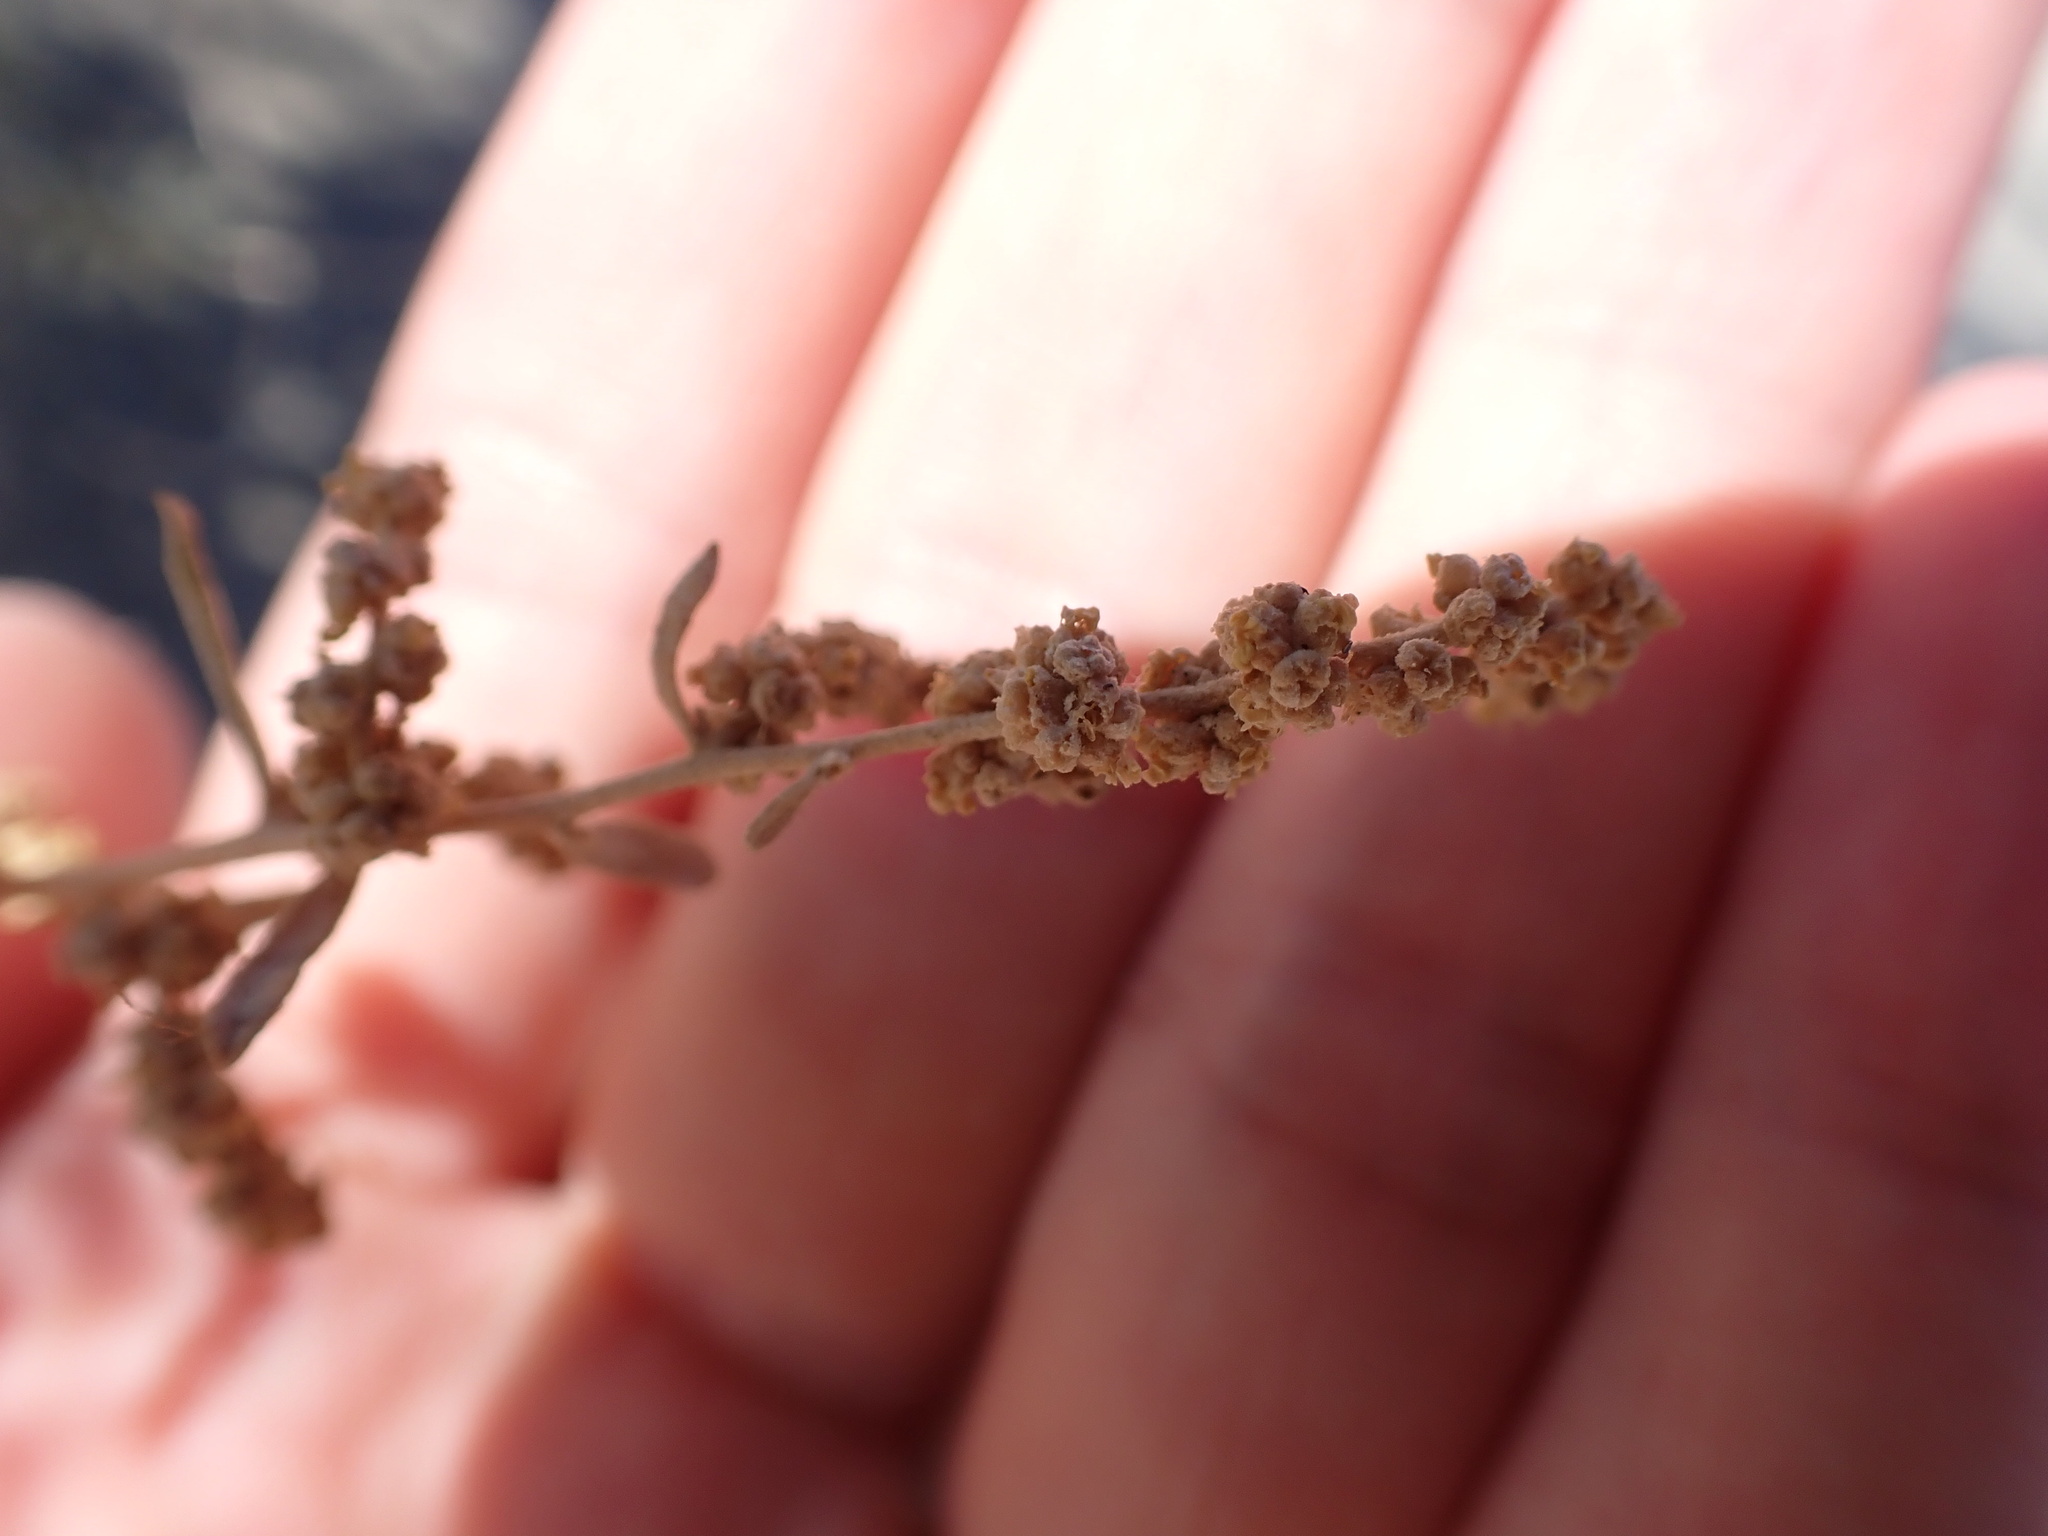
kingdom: Plantae
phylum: Tracheophyta
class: Magnoliopsida
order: Caryophyllales
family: Amaranthaceae
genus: Atriplex
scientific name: Atriplex canescens
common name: Four-wing saltbush
